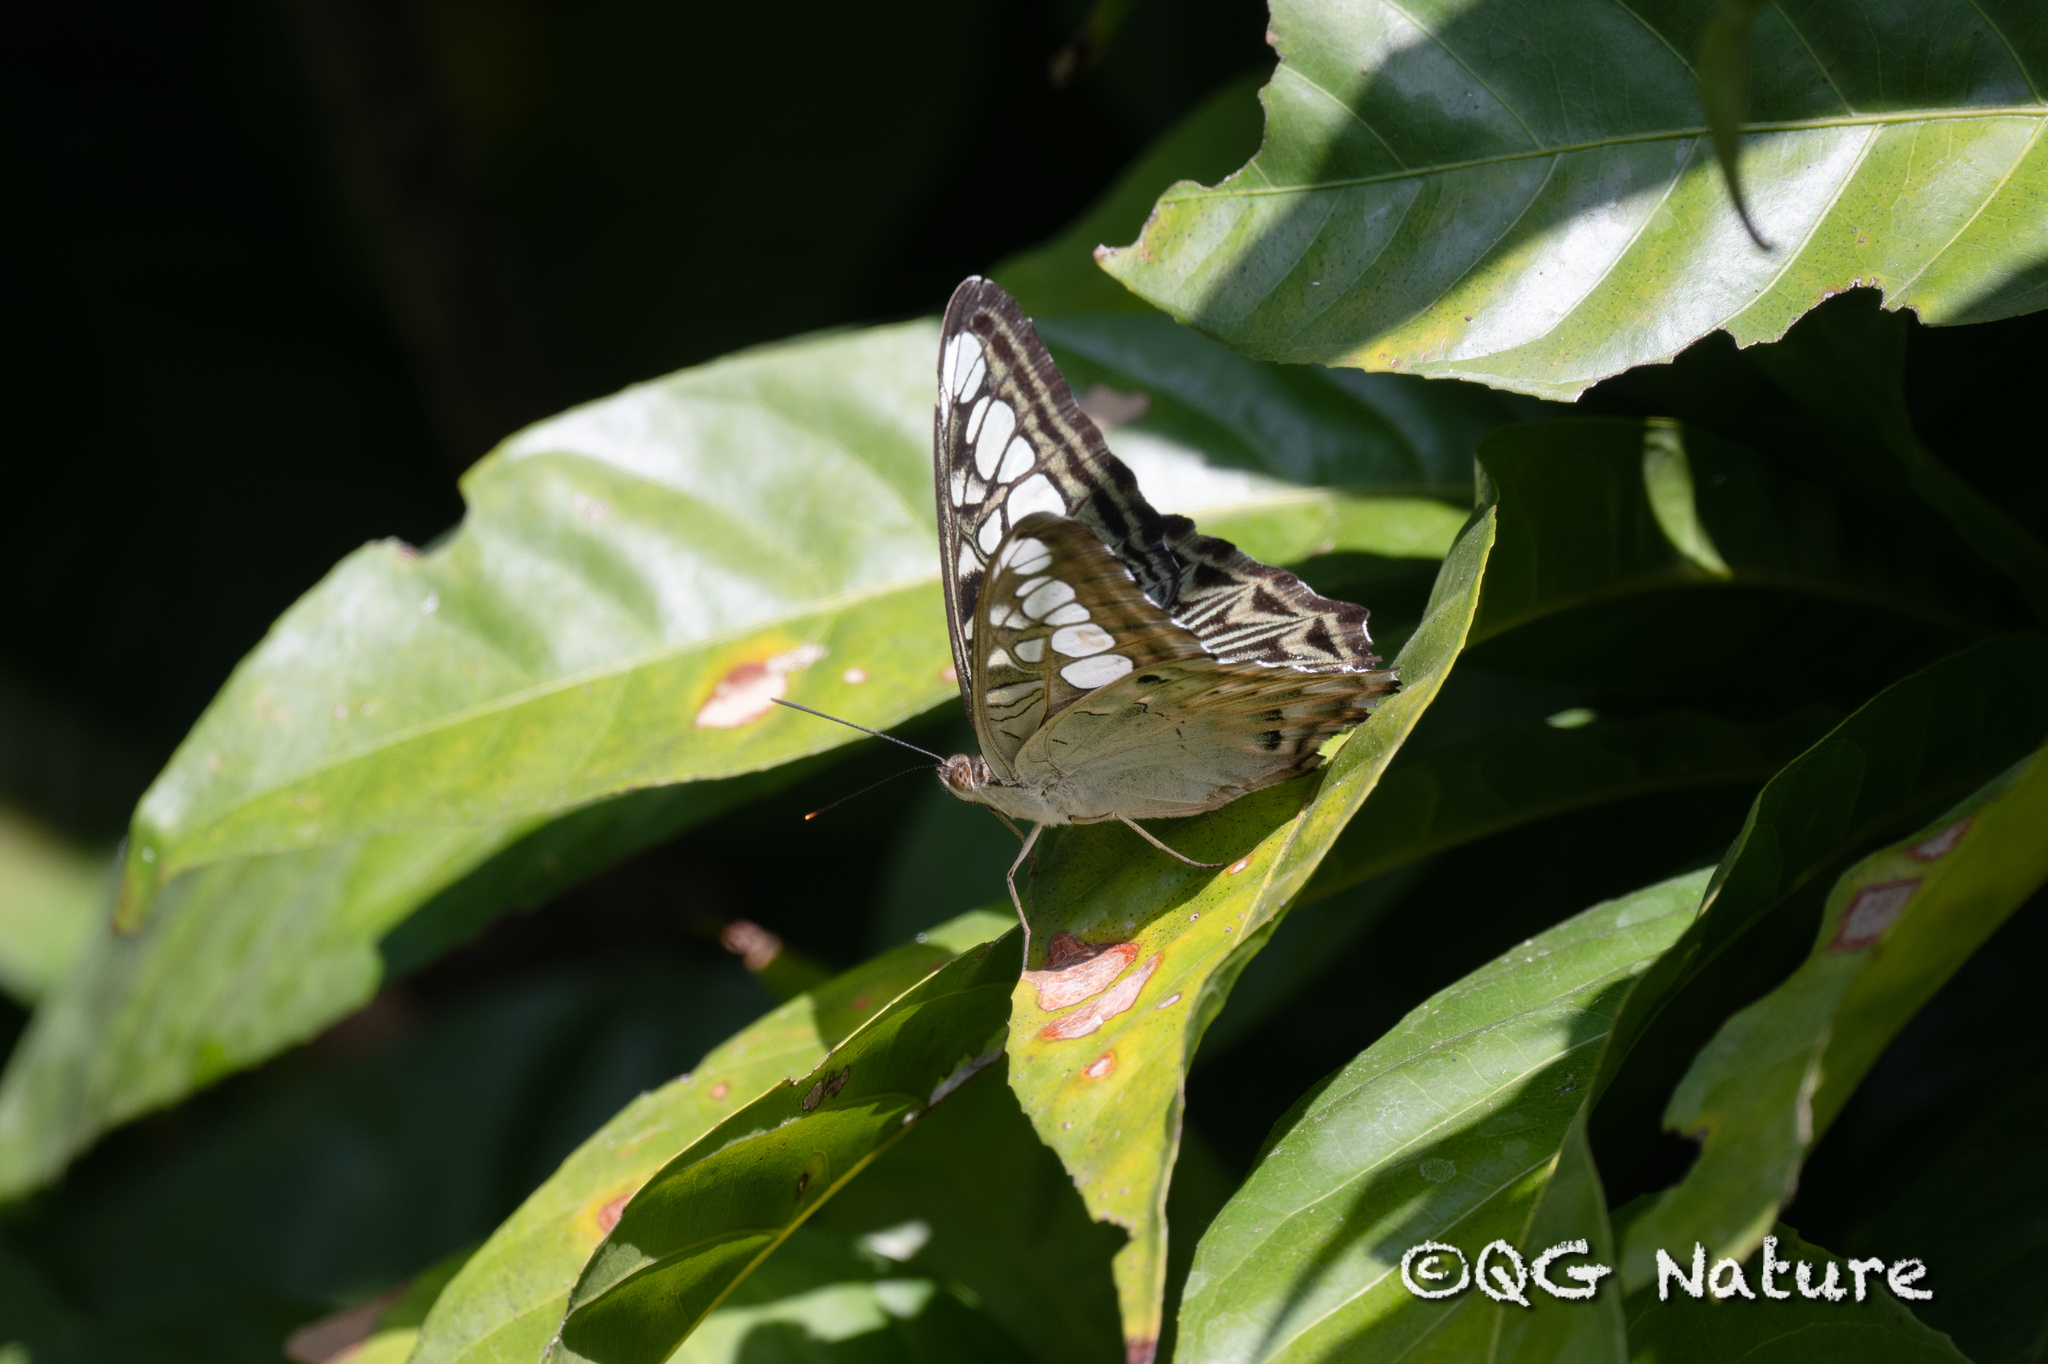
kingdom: Animalia
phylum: Arthropoda
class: Insecta
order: Lepidoptera
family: Nymphalidae
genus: Kallima
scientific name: Kallima sylvia
